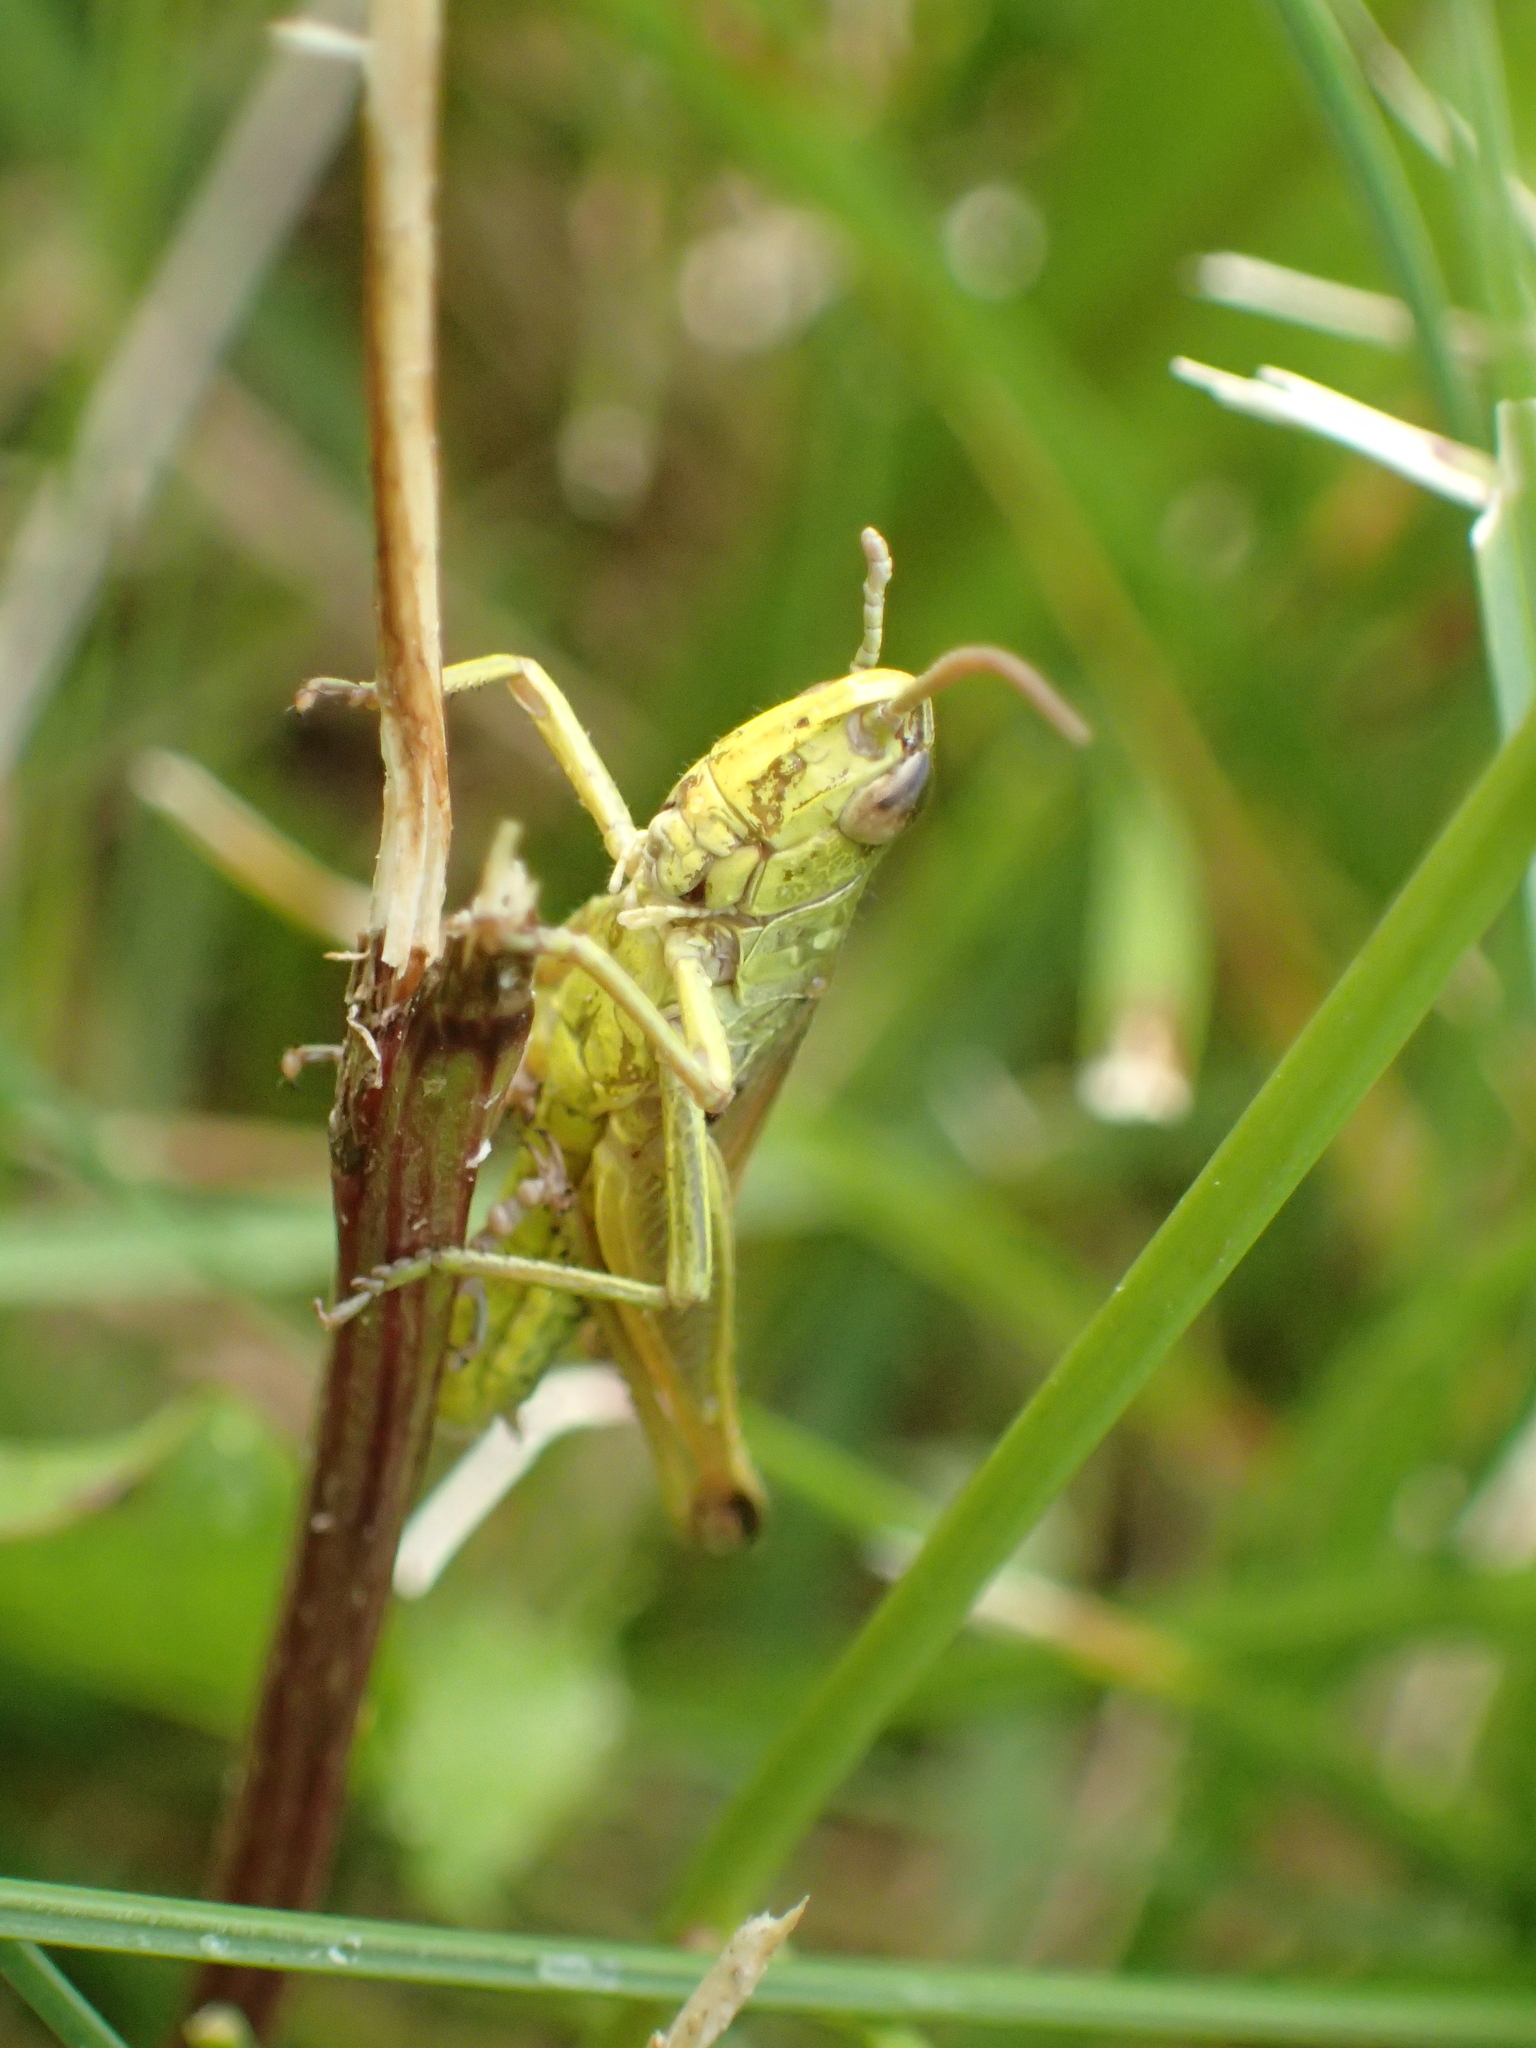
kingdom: Animalia
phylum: Arthropoda
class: Insecta
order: Orthoptera
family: Acrididae
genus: Pseudochorthippus
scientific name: Pseudochorthippus parallelus
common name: Meadow grasshopper
